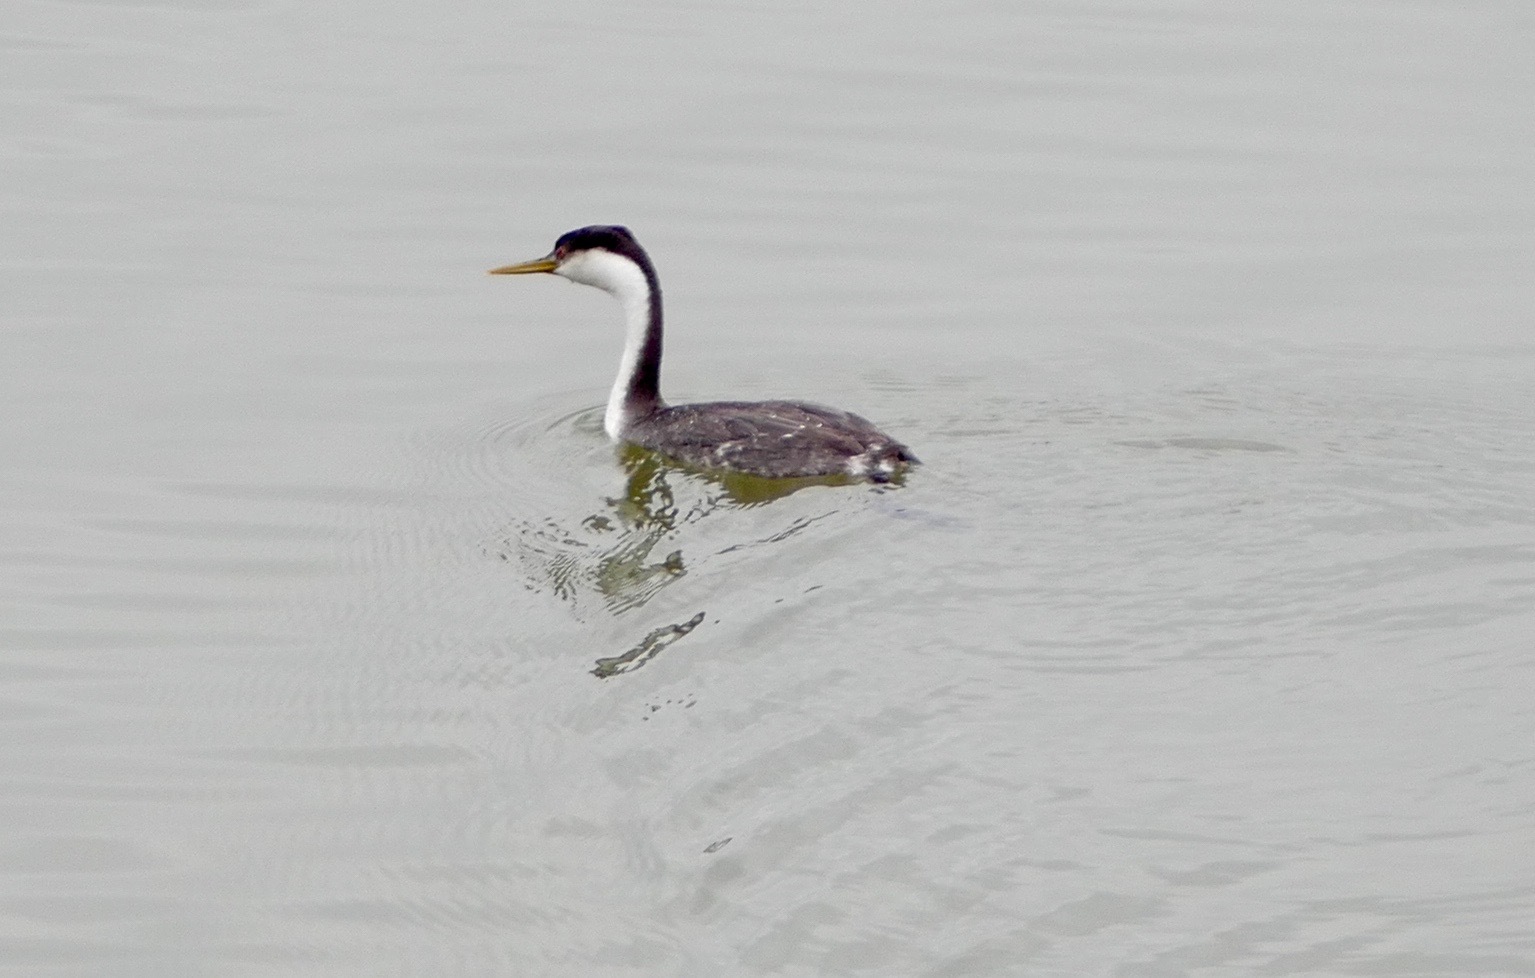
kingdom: Animalia
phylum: Chordata
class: Aves
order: Podicipediformes
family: Podicipedidae
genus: Aechmophorus
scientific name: Aechmophorus occidentalis
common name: Western grebe
